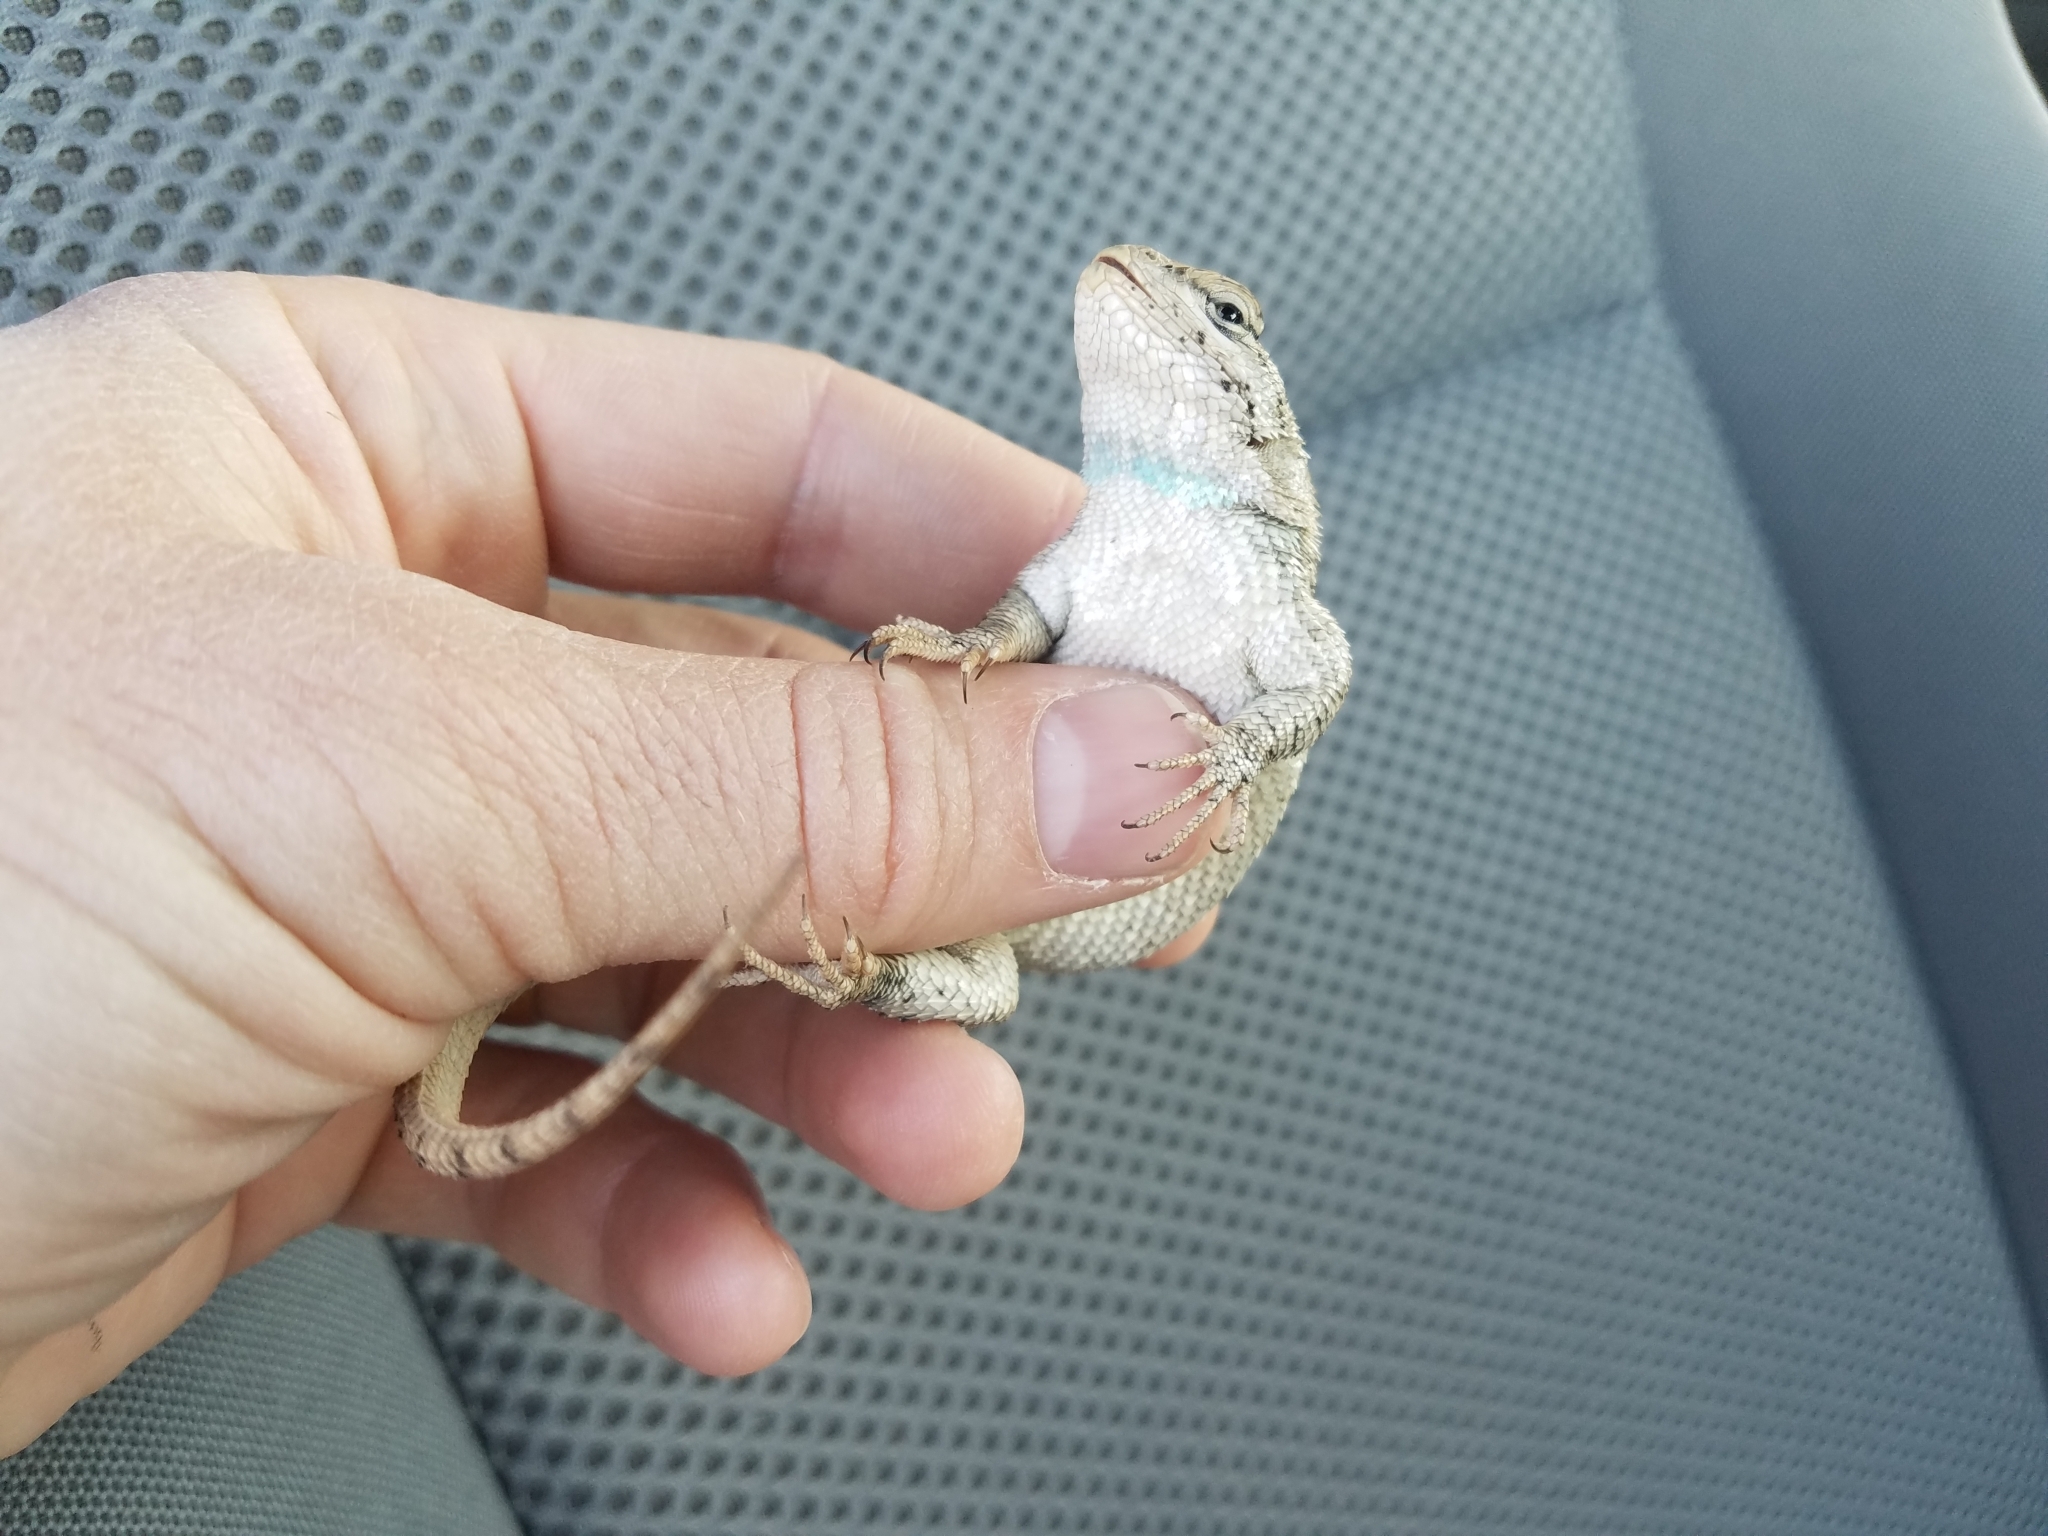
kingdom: Animalia
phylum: Chordata
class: Squamata
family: Phrynosomatidae
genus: Sceloporus
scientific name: Sceloporus consobrinus
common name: Southern prairie lizard
